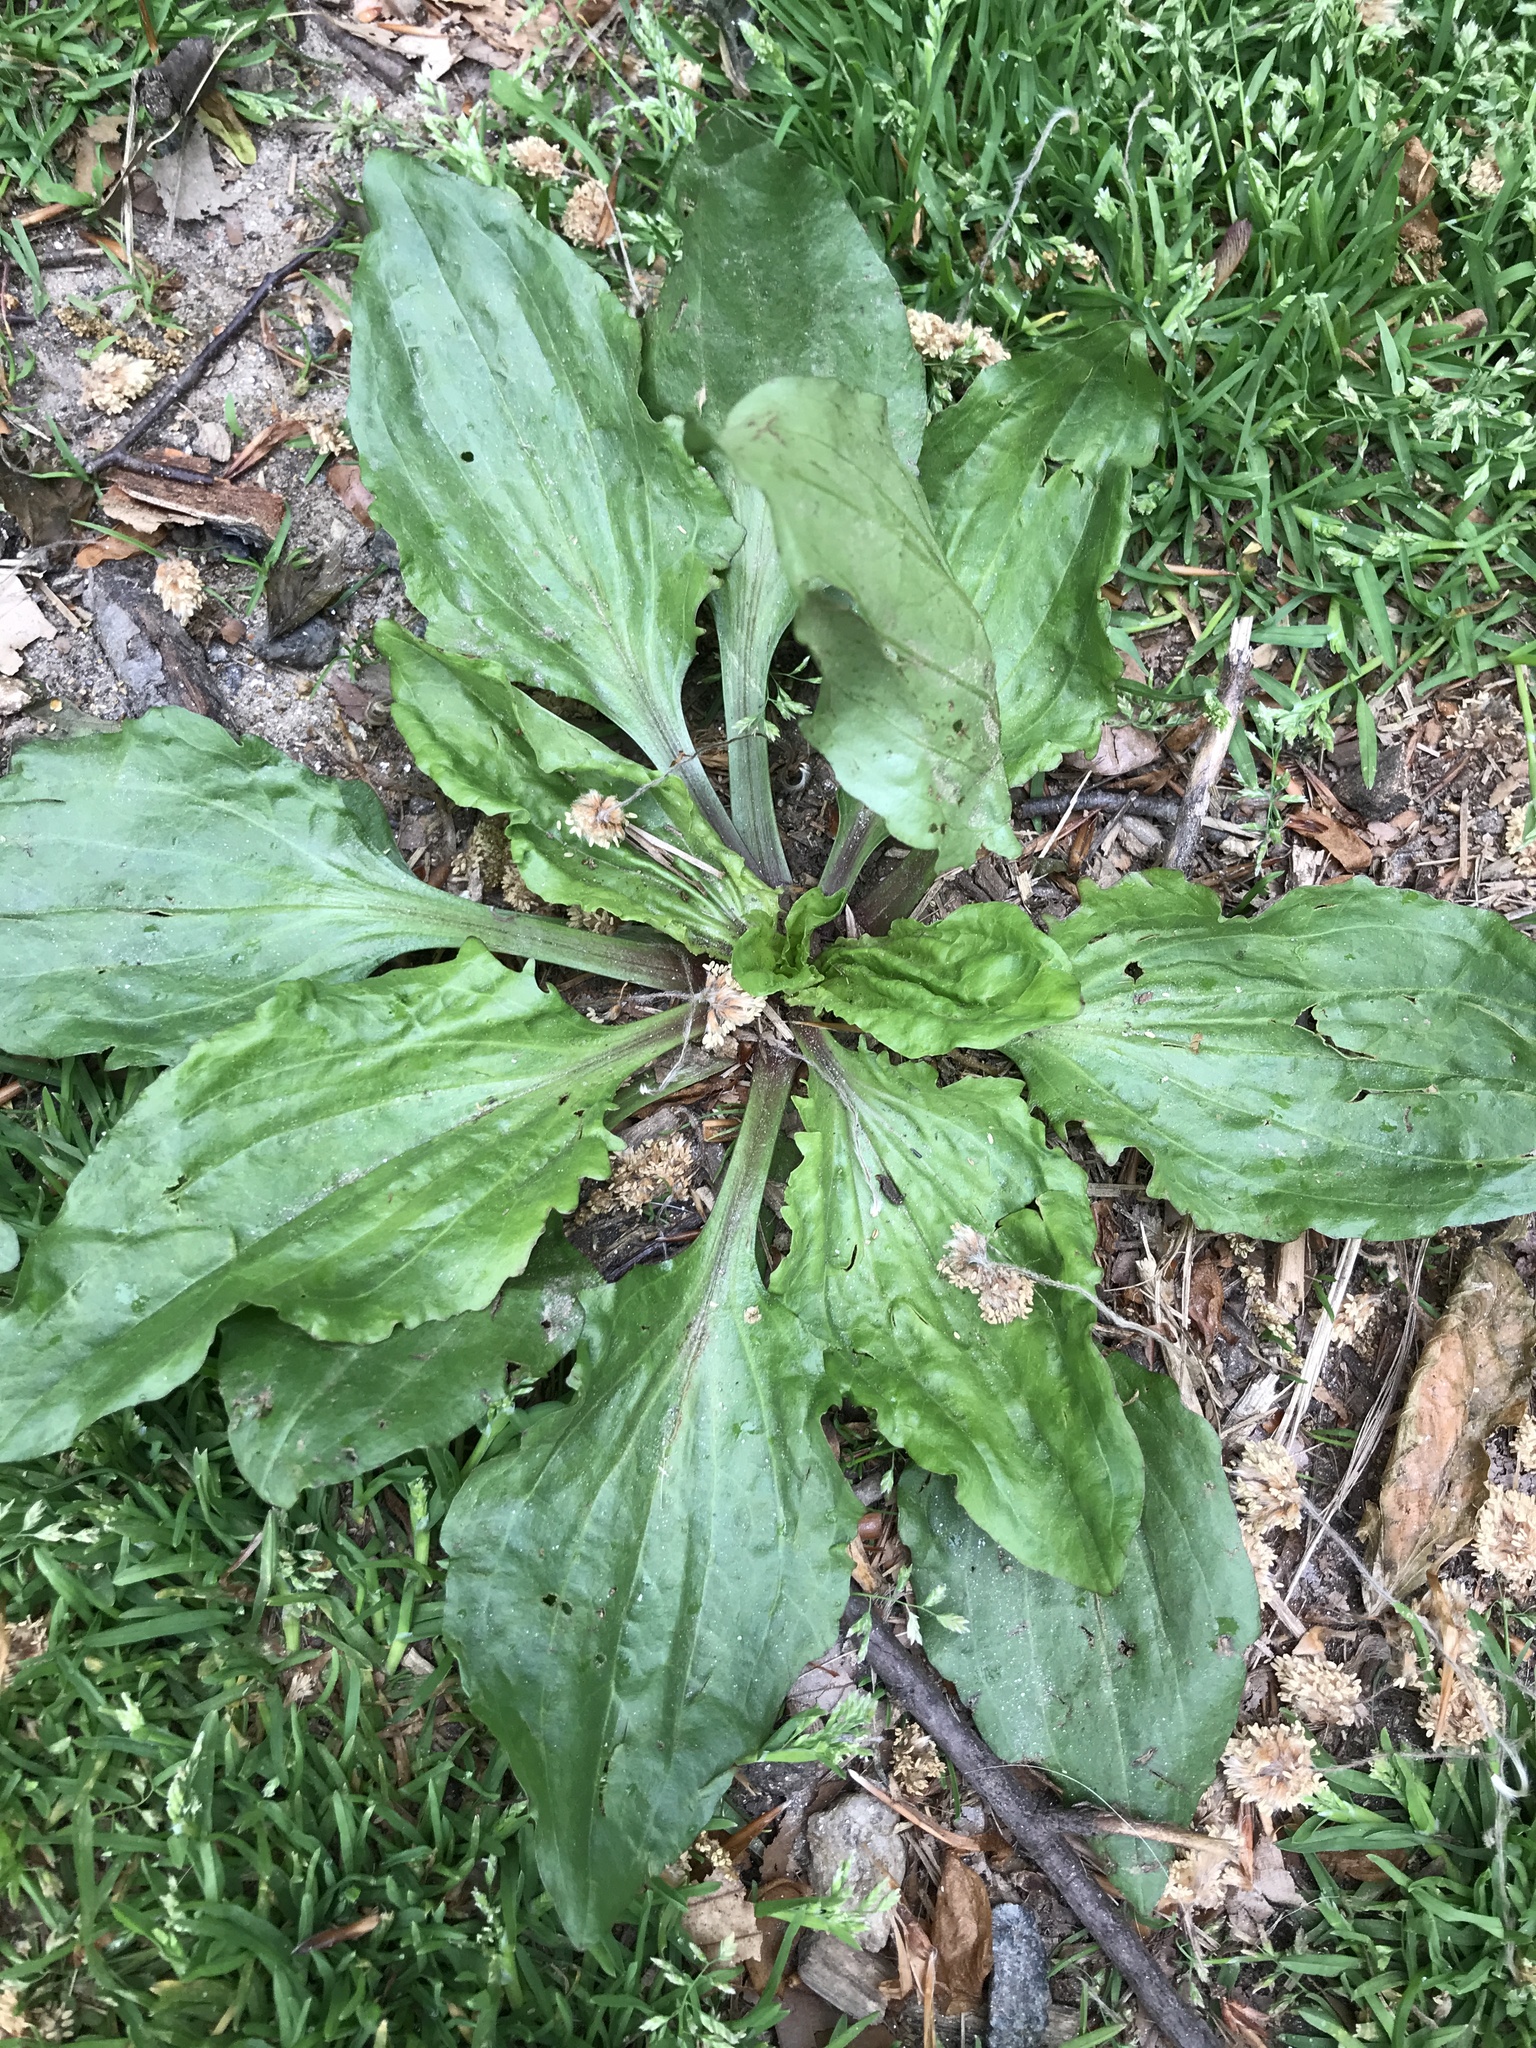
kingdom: Plantae
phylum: Tracheophyta
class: Magnoliopsida
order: Lamiales
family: Plantaginaceae
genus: Plantago
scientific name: Plantago rugelii
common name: American plantain
